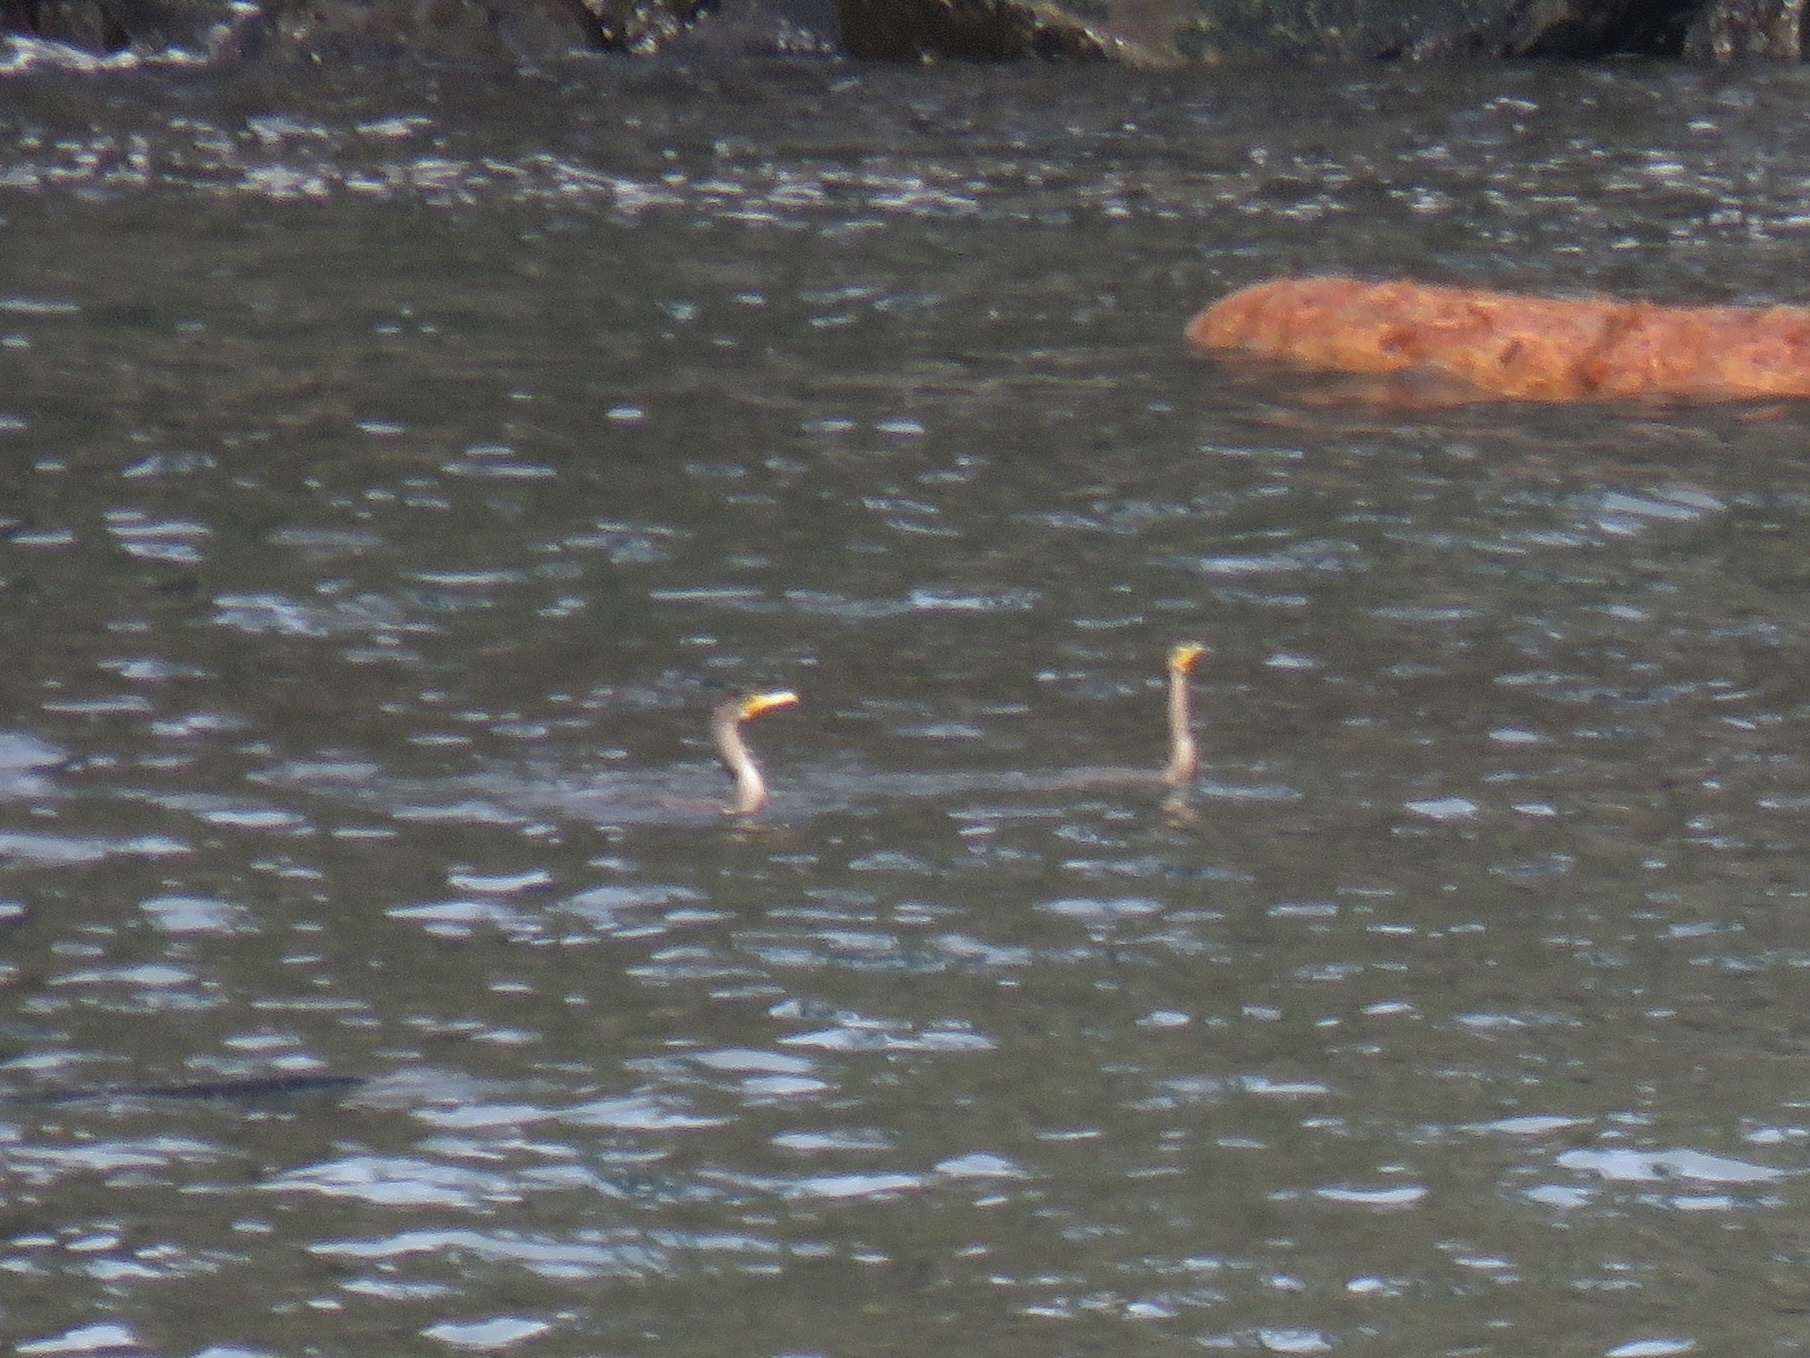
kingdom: Animalia
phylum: Chordata
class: Aves
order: Suliformes
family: Phalacrocoracidae
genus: Phalacrocorax
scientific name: Phalacrocorax auritus
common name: Double-crested cormorant
